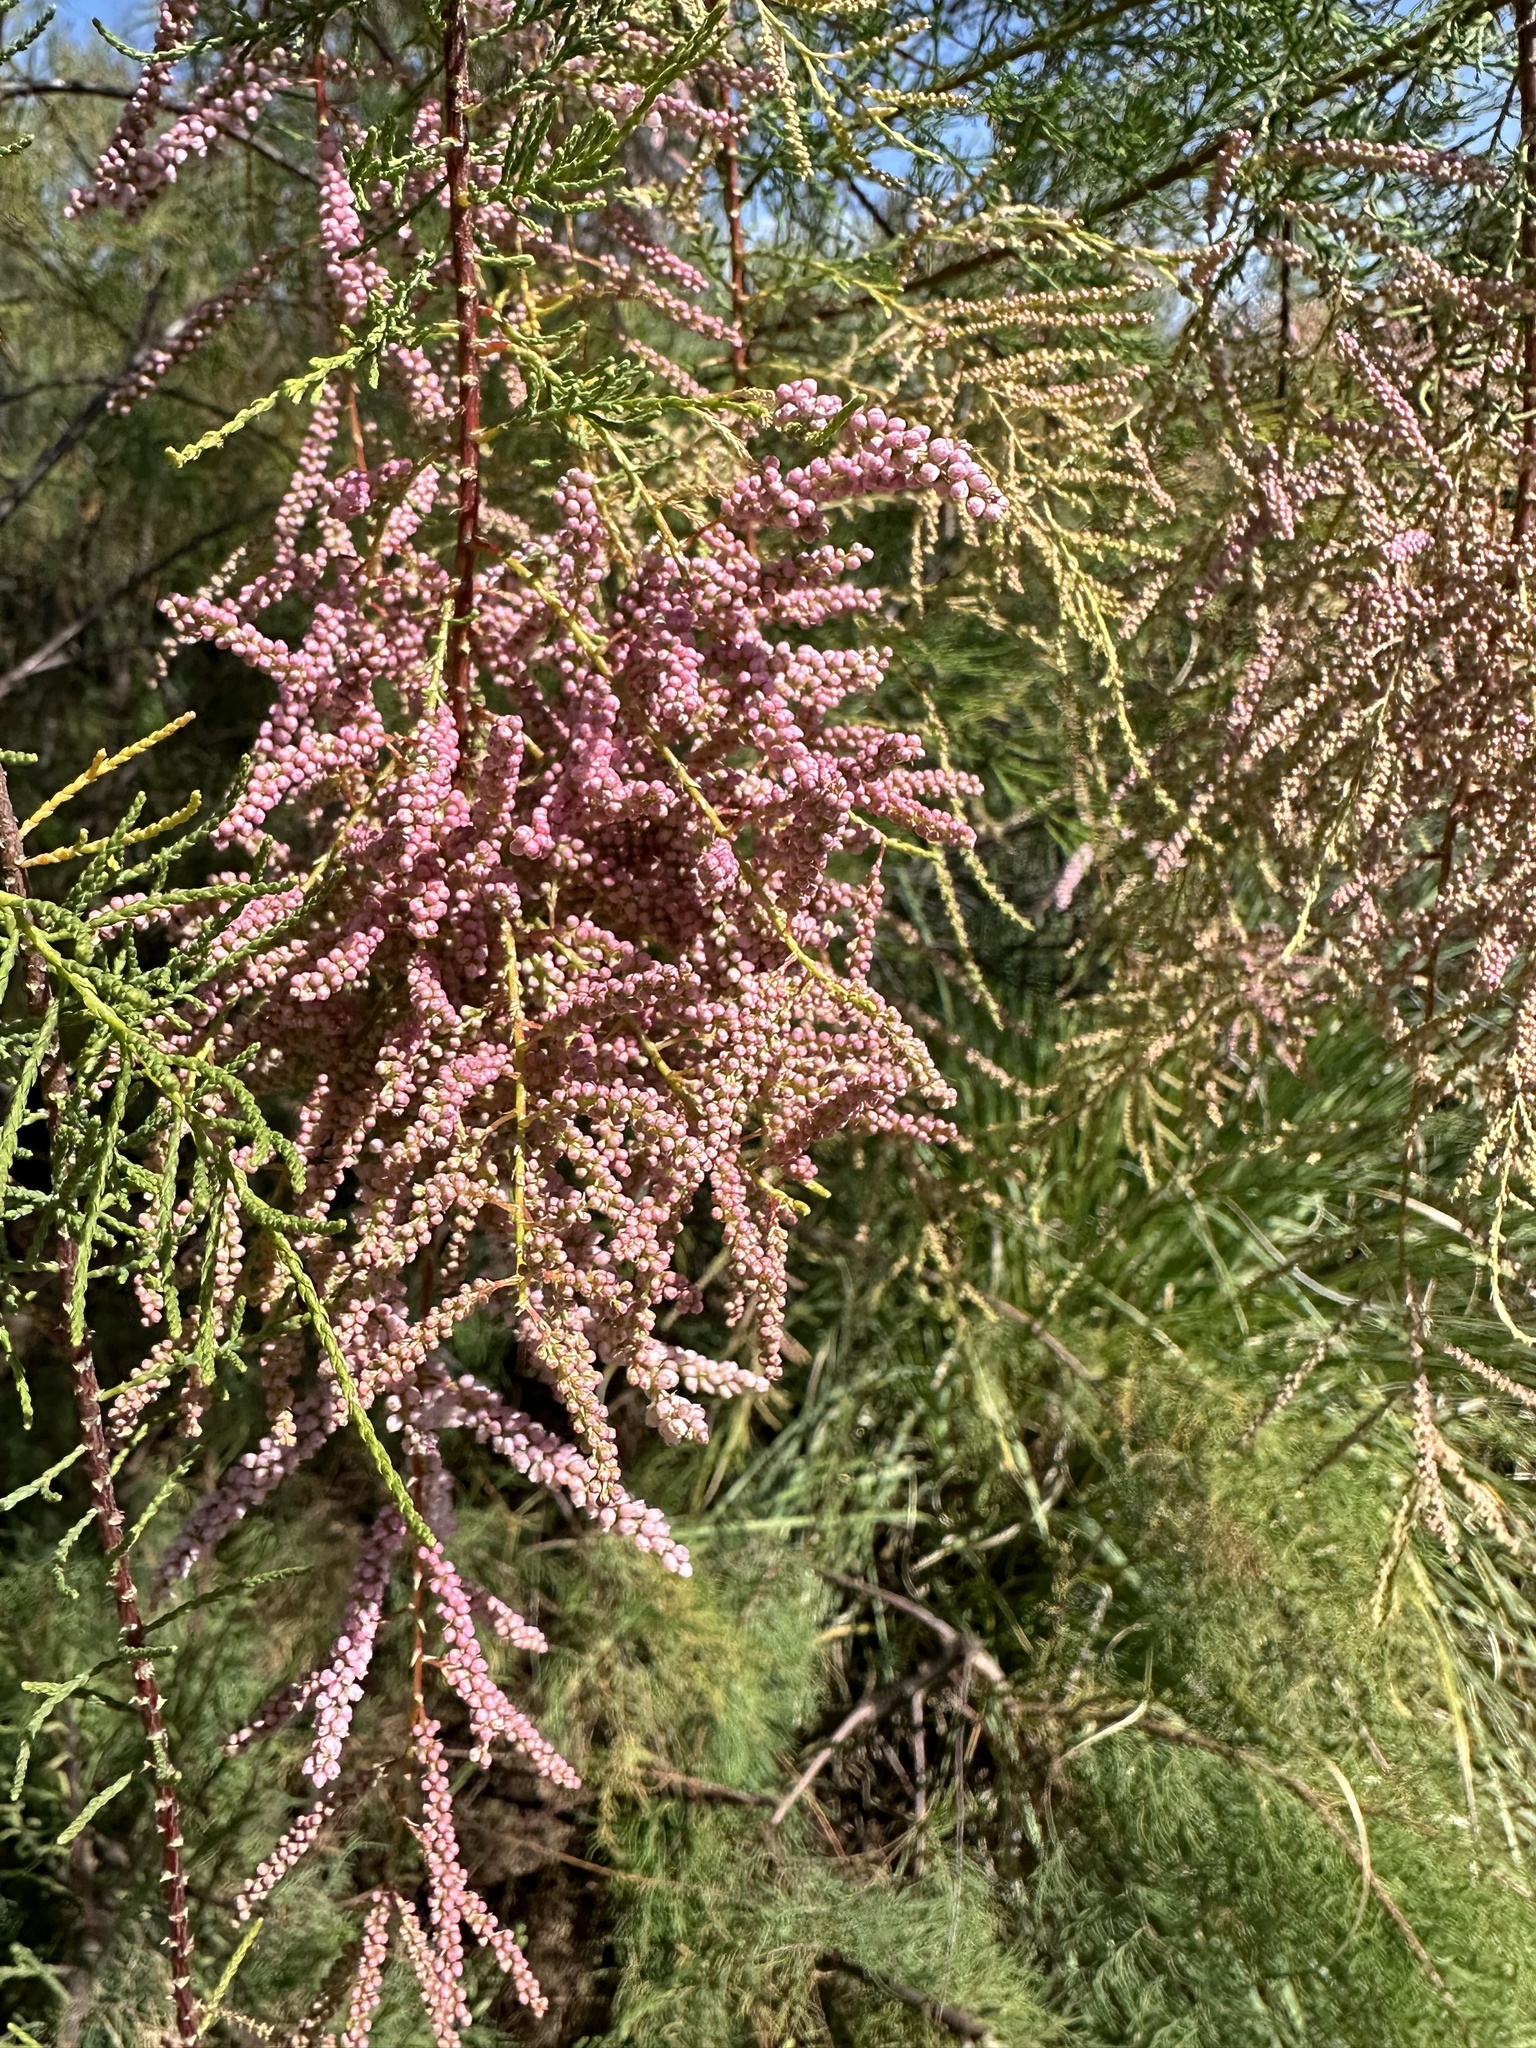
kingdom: Plantae
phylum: Tracheophyta
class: Magnoliopsida
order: Caryophyllales
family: Tamaricaceae
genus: Tamarix
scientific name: Tamarix
